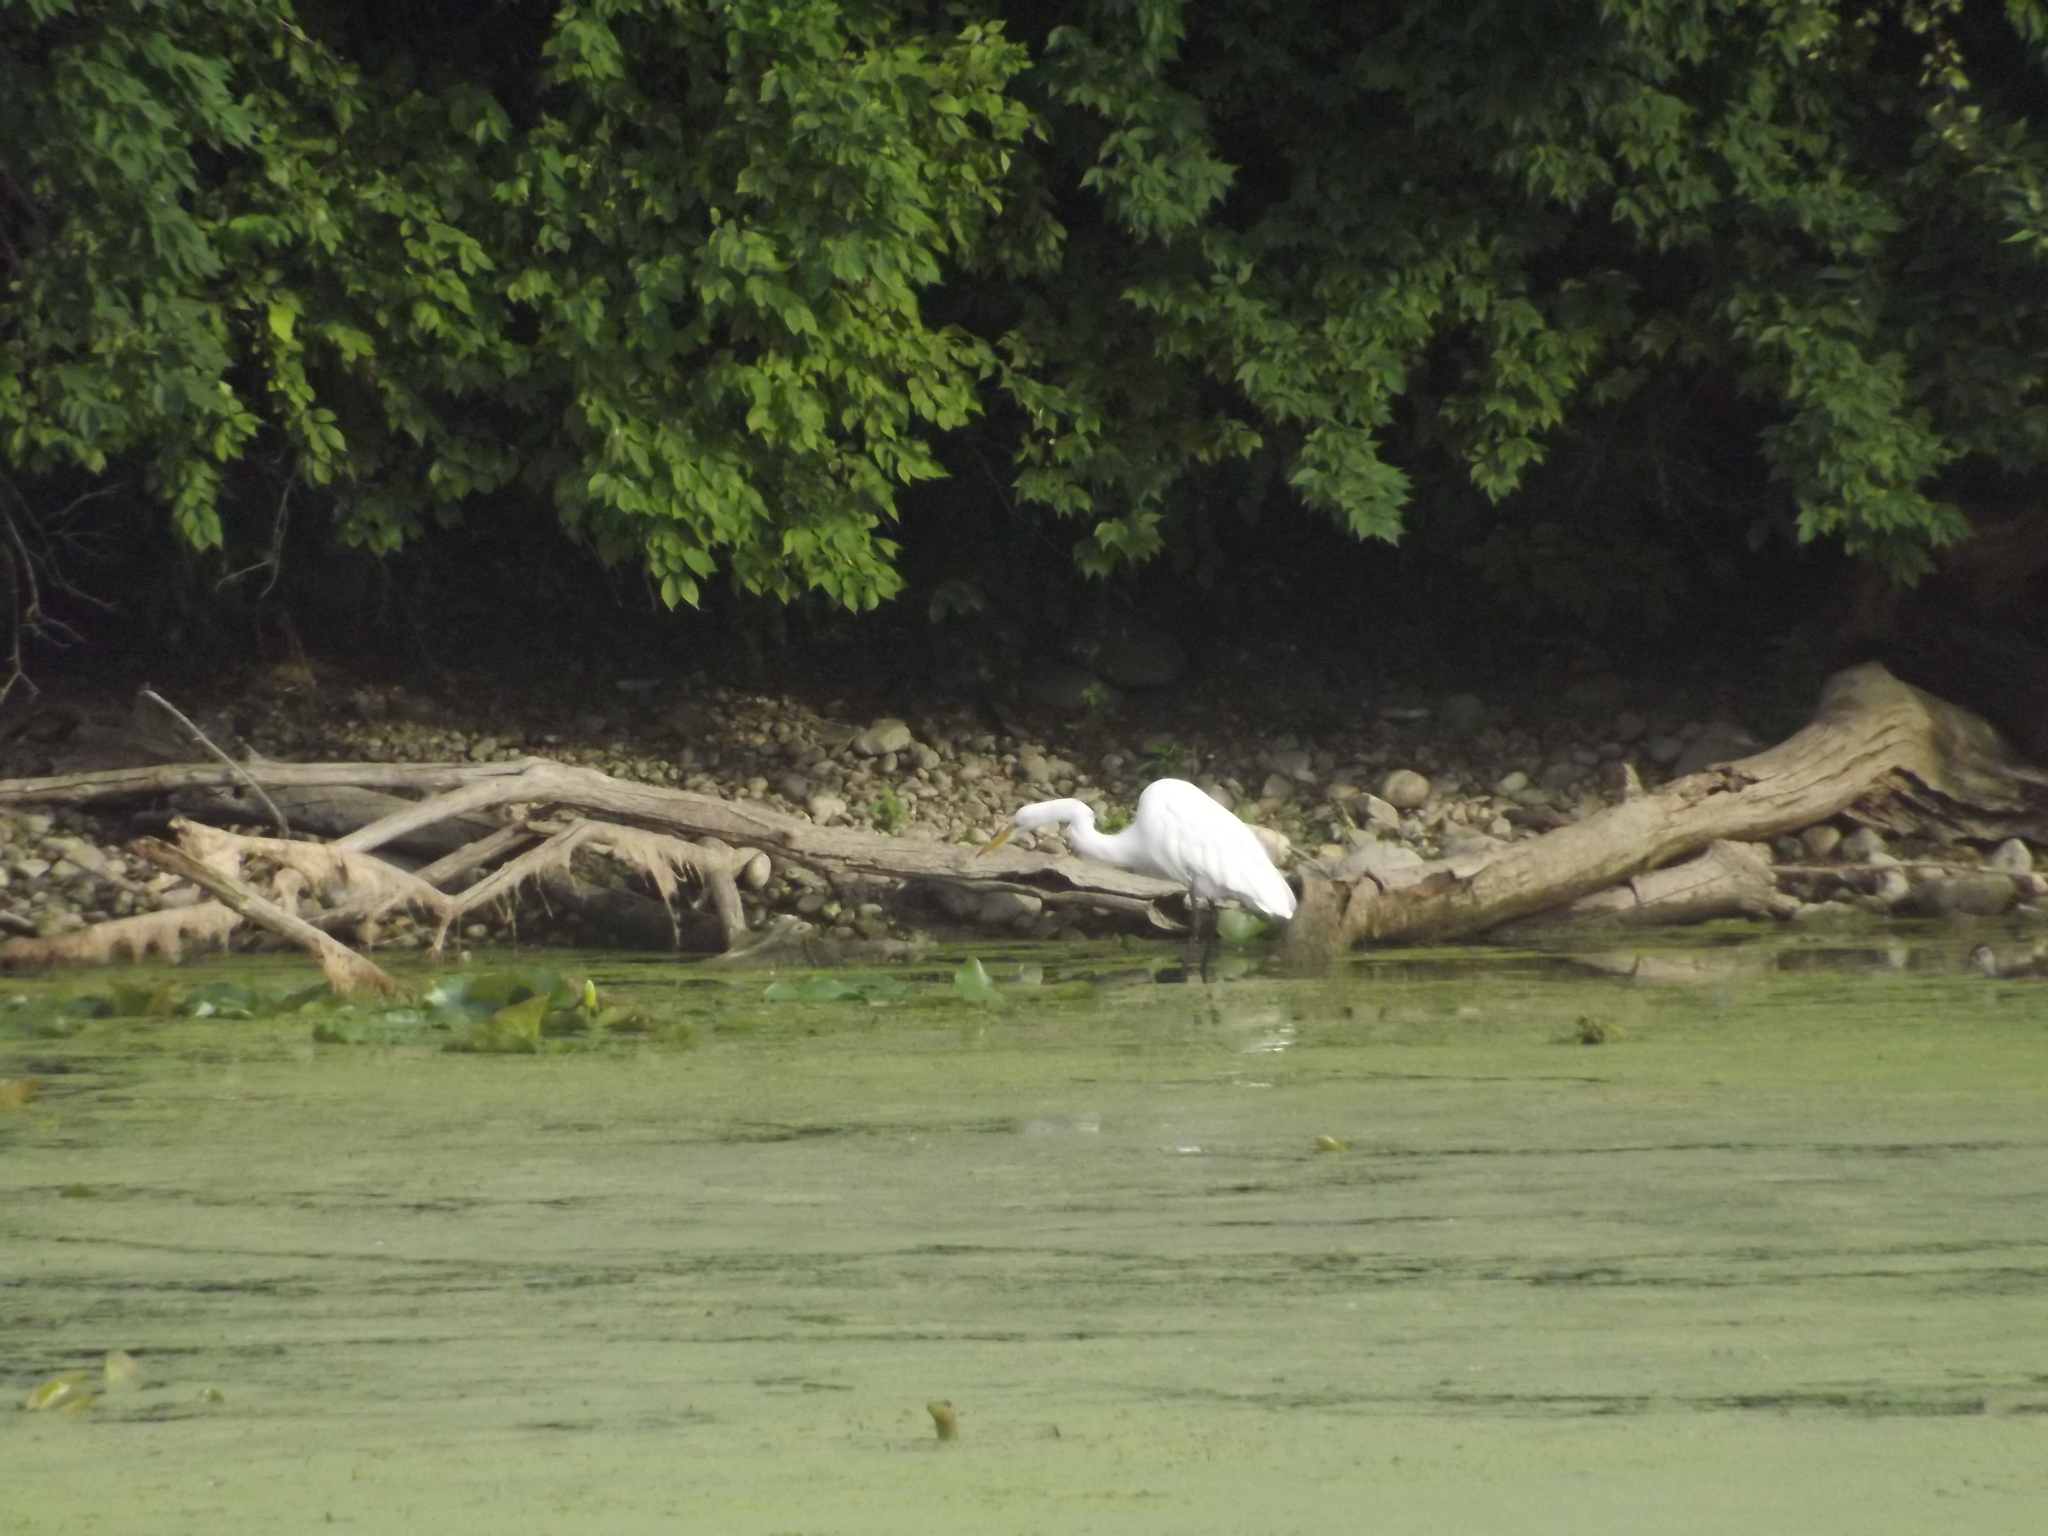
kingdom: Animalia
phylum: Chordata
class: Aves
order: Pelecaniformes
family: Ardeidae
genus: Ardea
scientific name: Ardea alba
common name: Great egret
